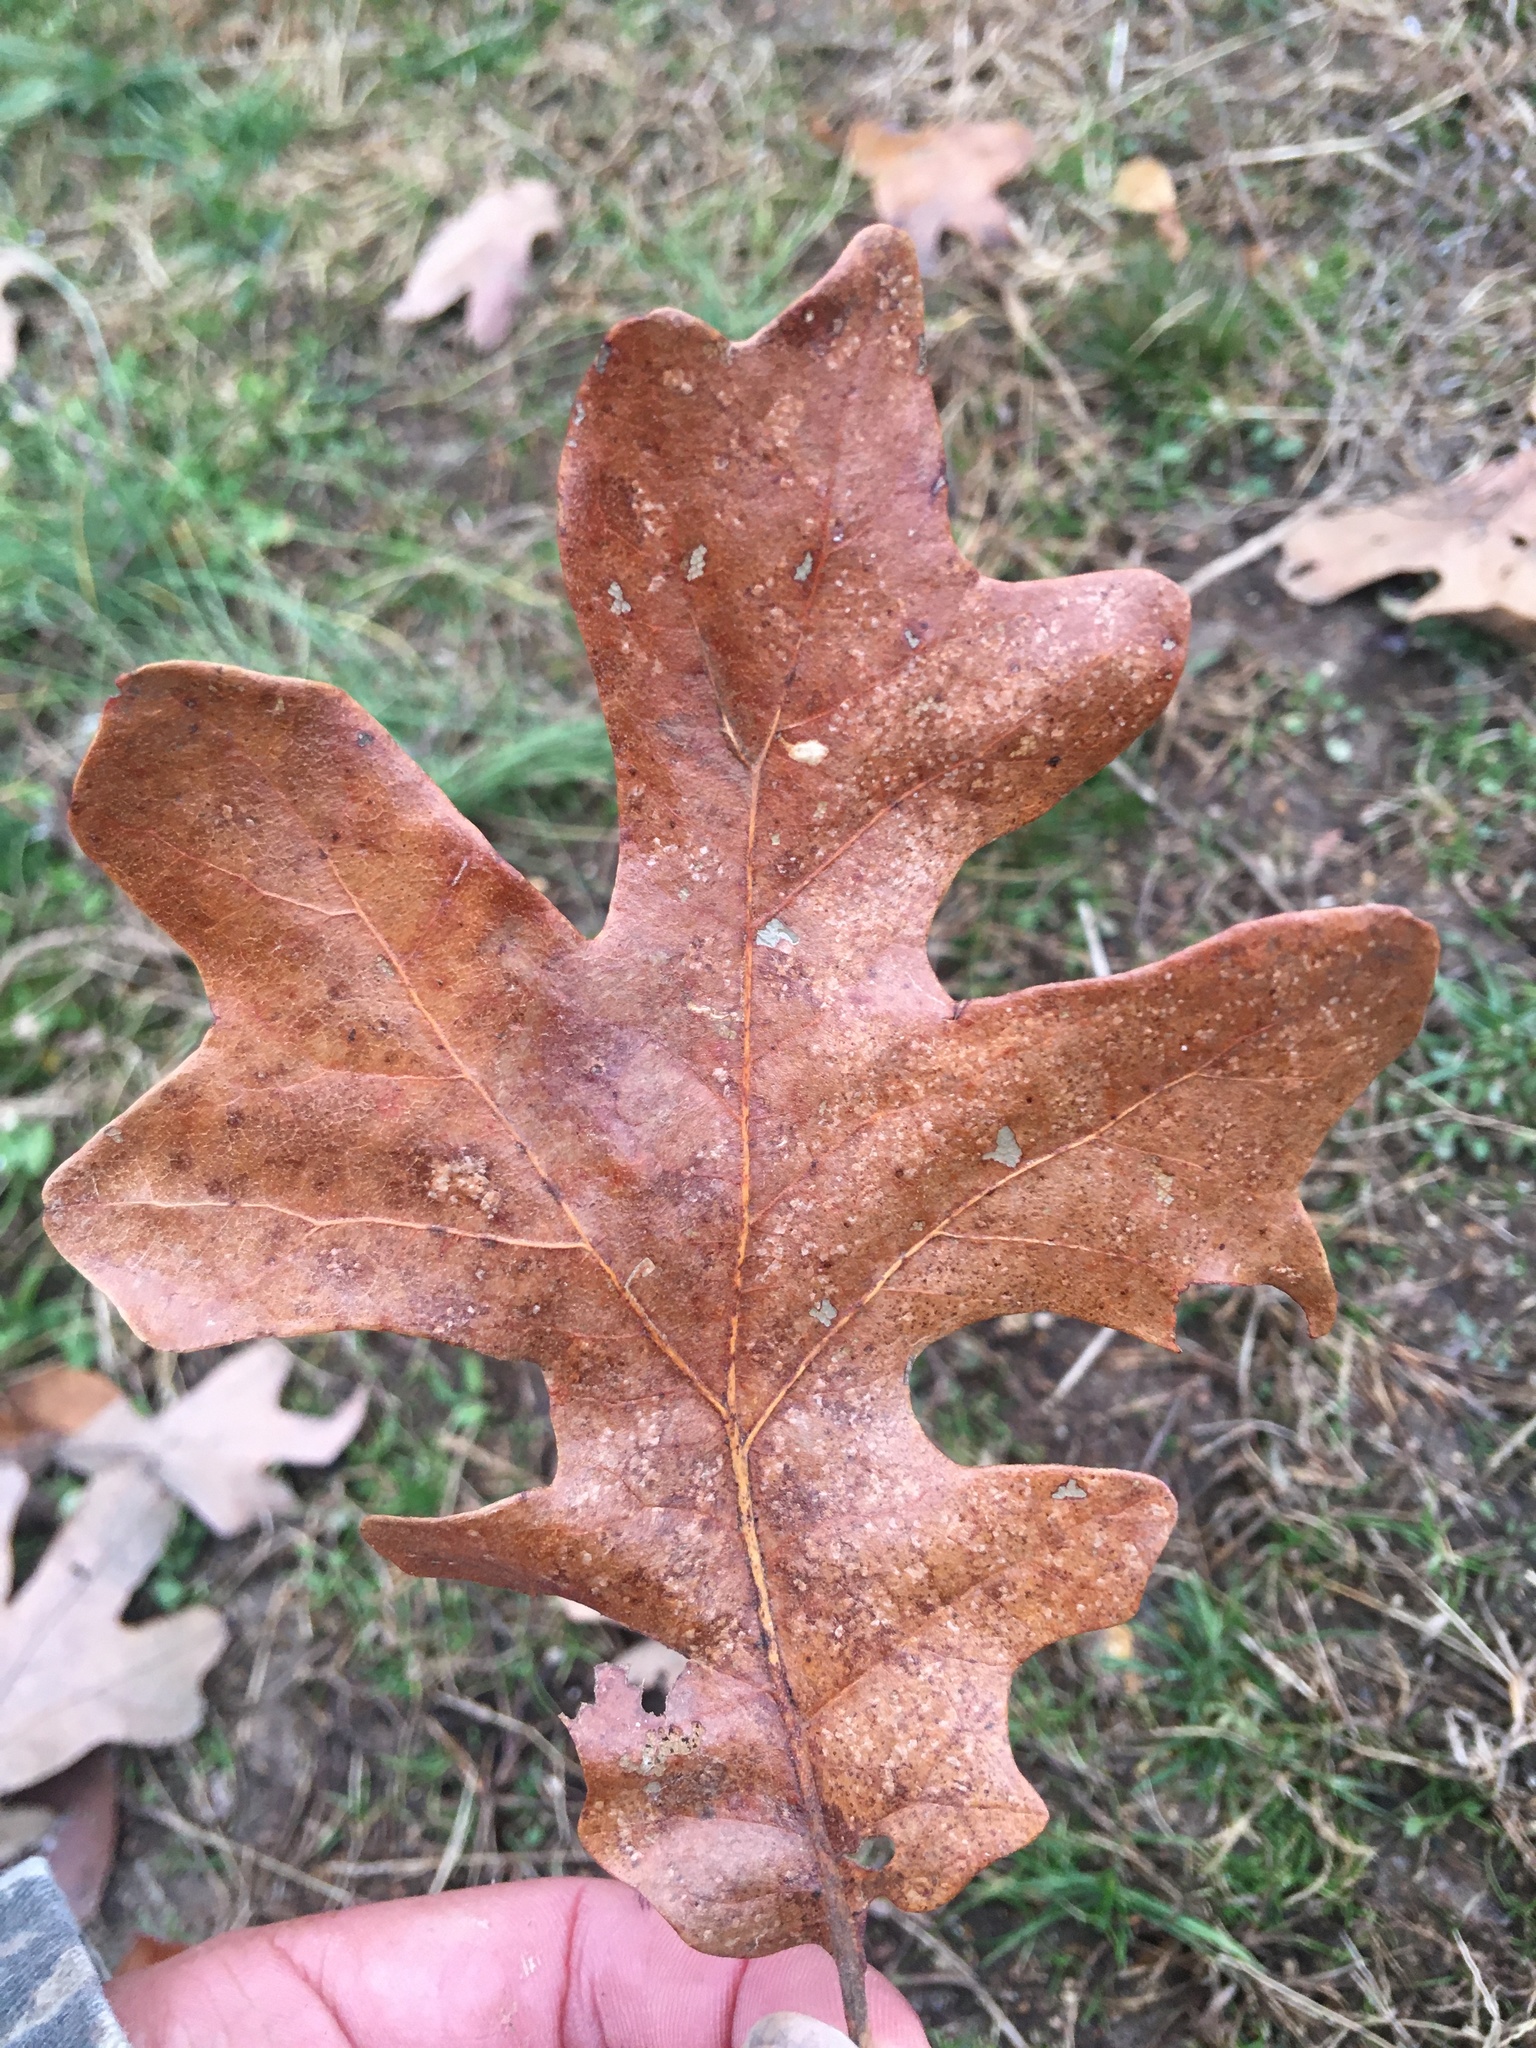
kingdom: Plantae
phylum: Tracheophyta
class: Magnoliopsida
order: Fagales
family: Fagaceae
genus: Quercus
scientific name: Quercus stellata
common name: Post oak
